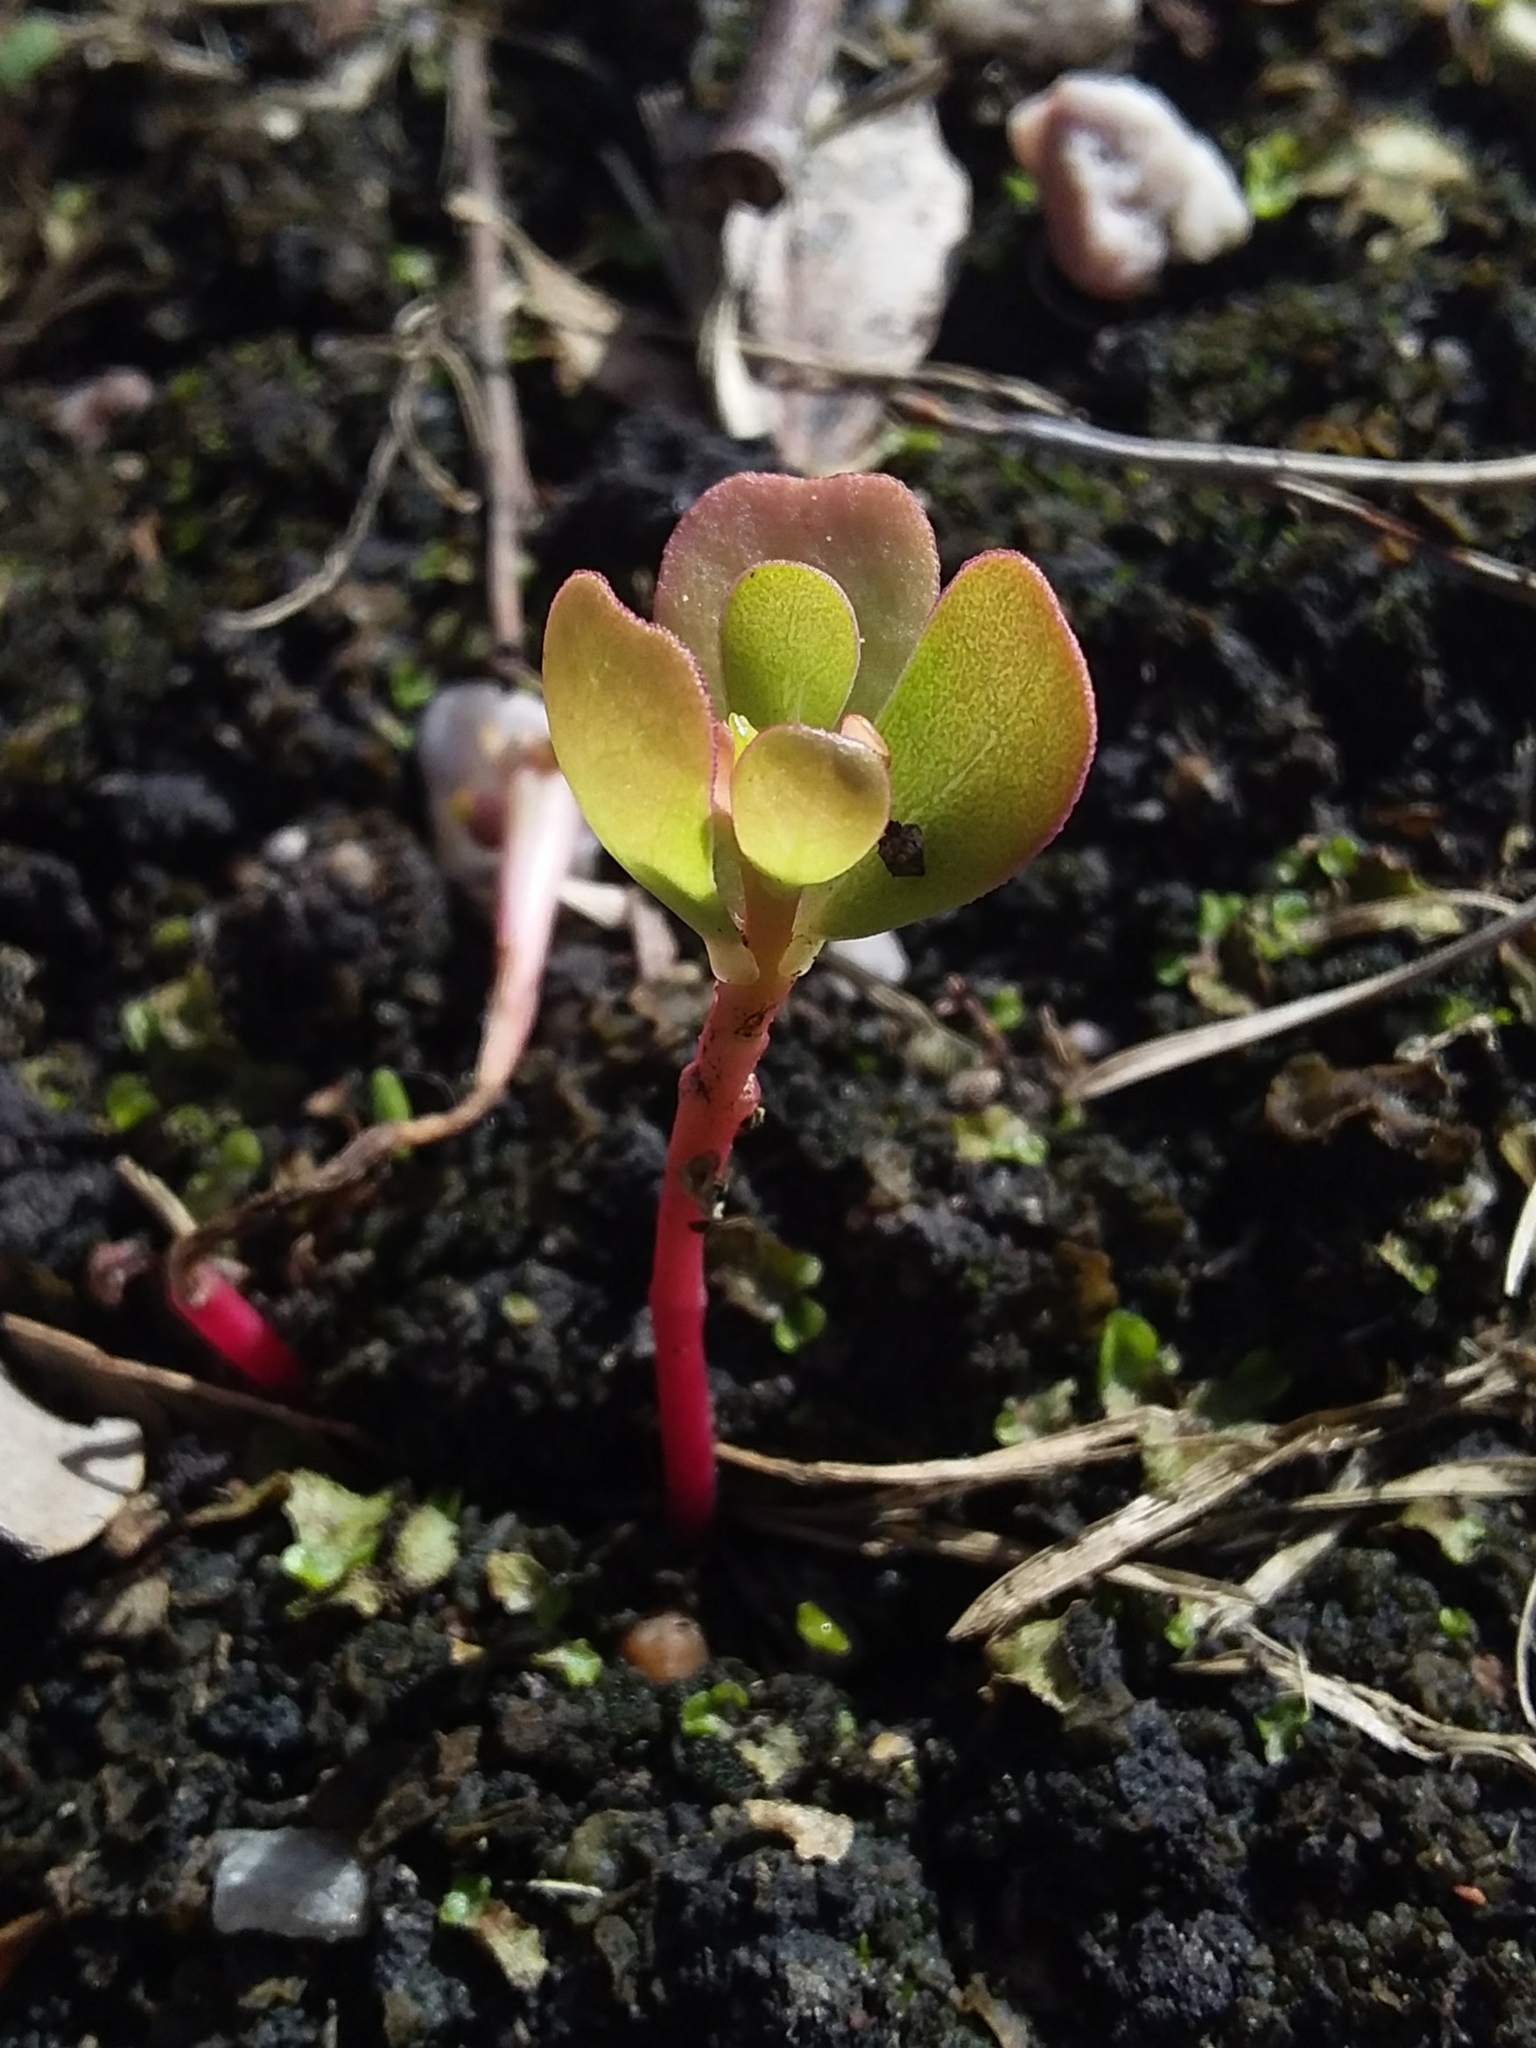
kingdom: Plantae
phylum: Tracheophyta
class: Magnoliopsida
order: Caryophyllales
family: Portulacaceae
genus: Portulaca
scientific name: Portulaca oleracea
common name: Common purslane
